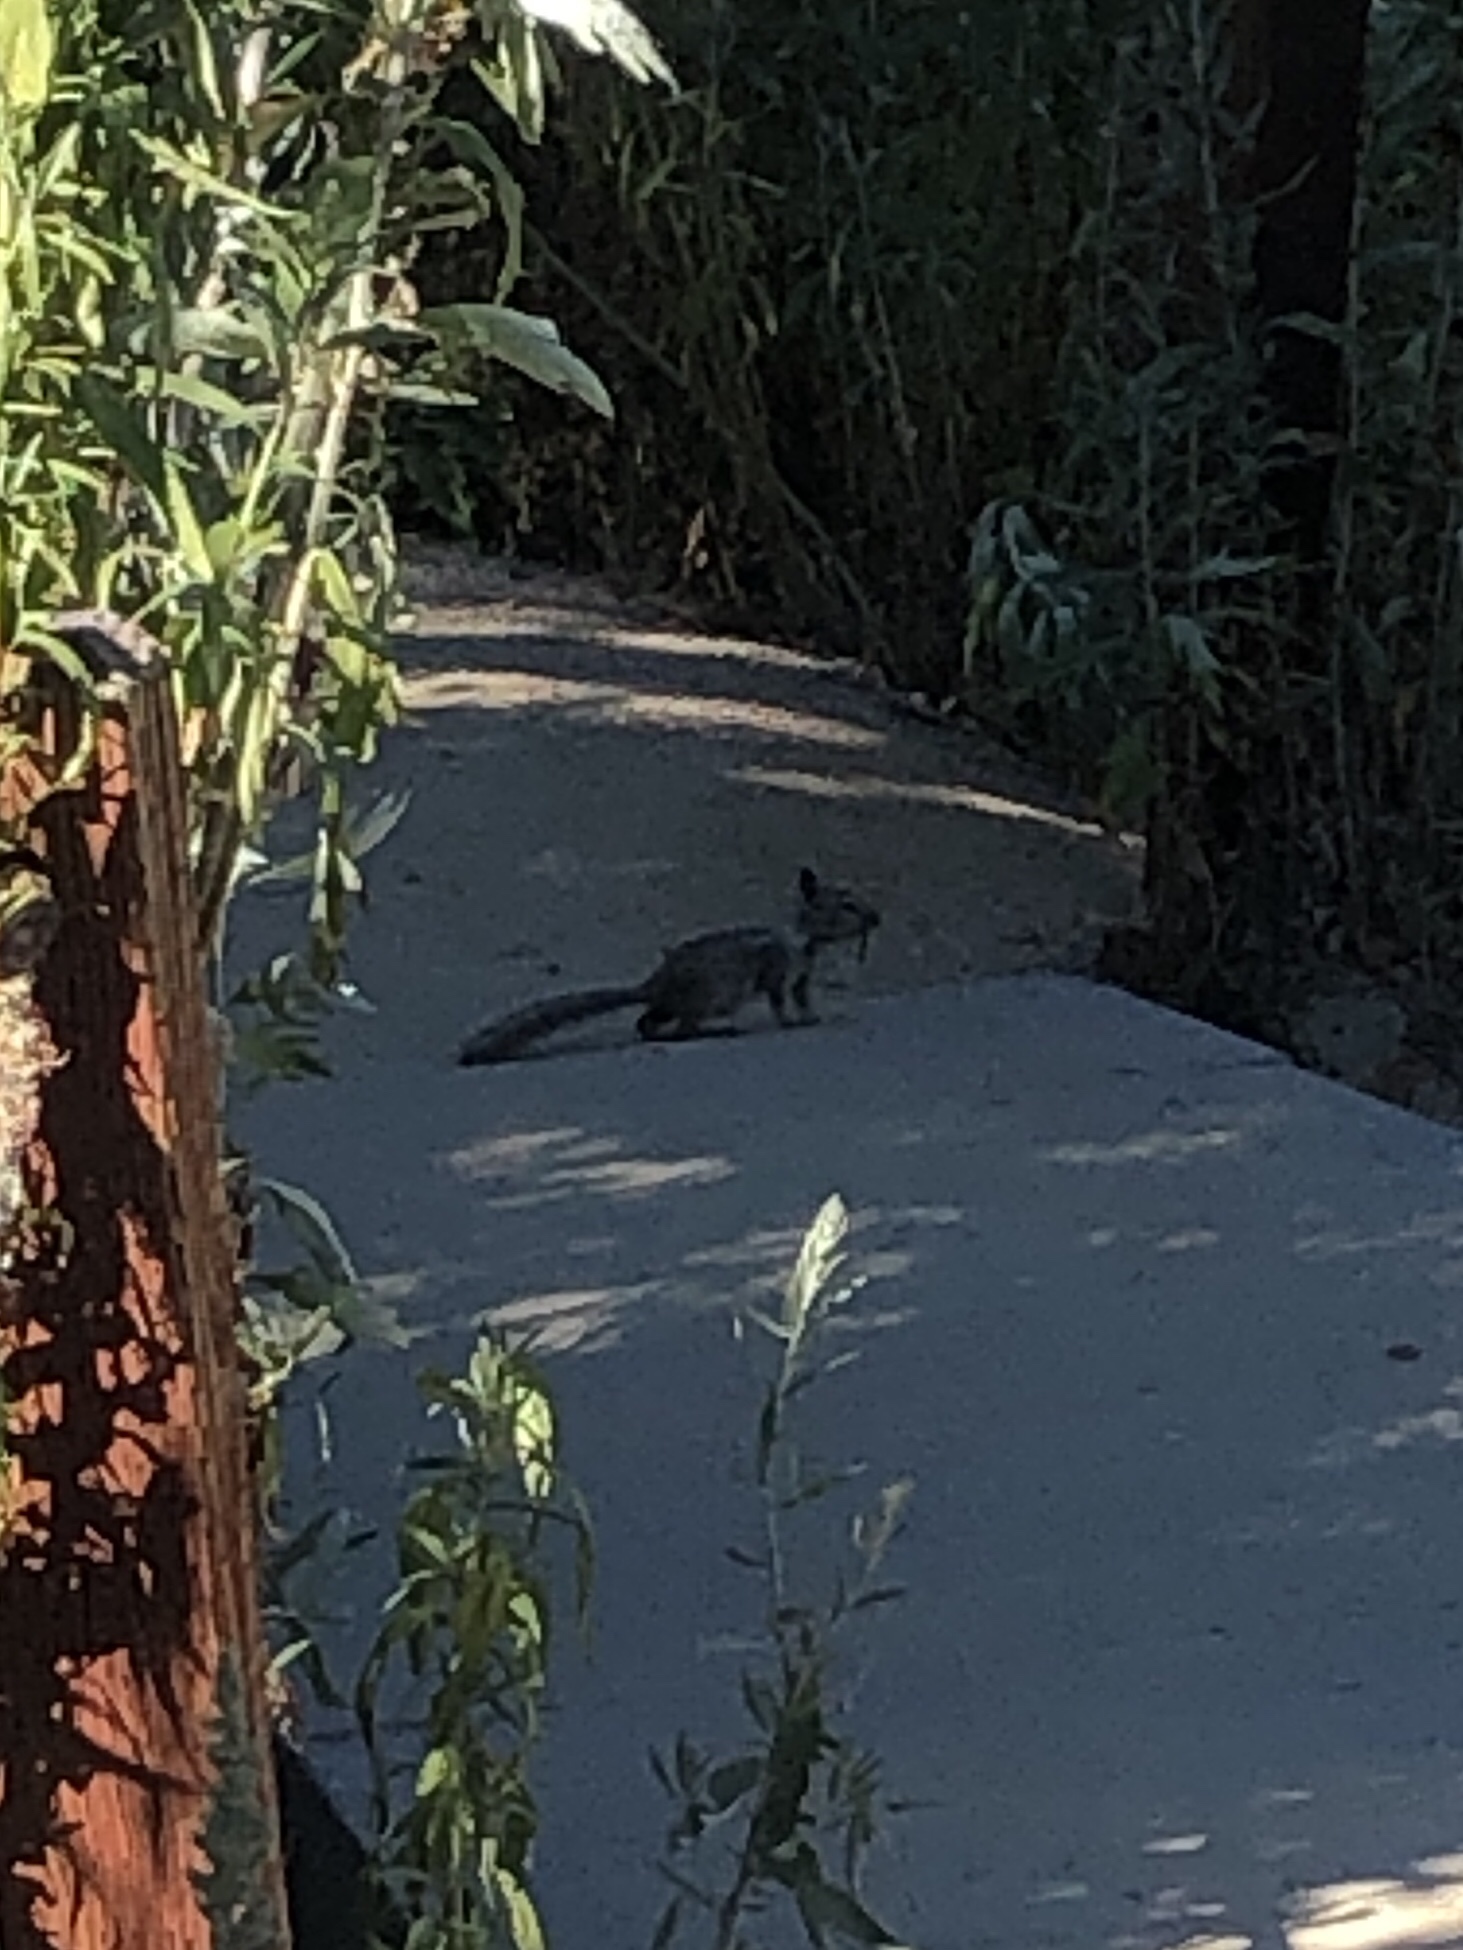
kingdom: Animalia
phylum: Chordata
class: Mammalia
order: Rodentia
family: Sciuridae
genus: Otospermophilus
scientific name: Otospermophilus beecheyi
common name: California ground squirrel
